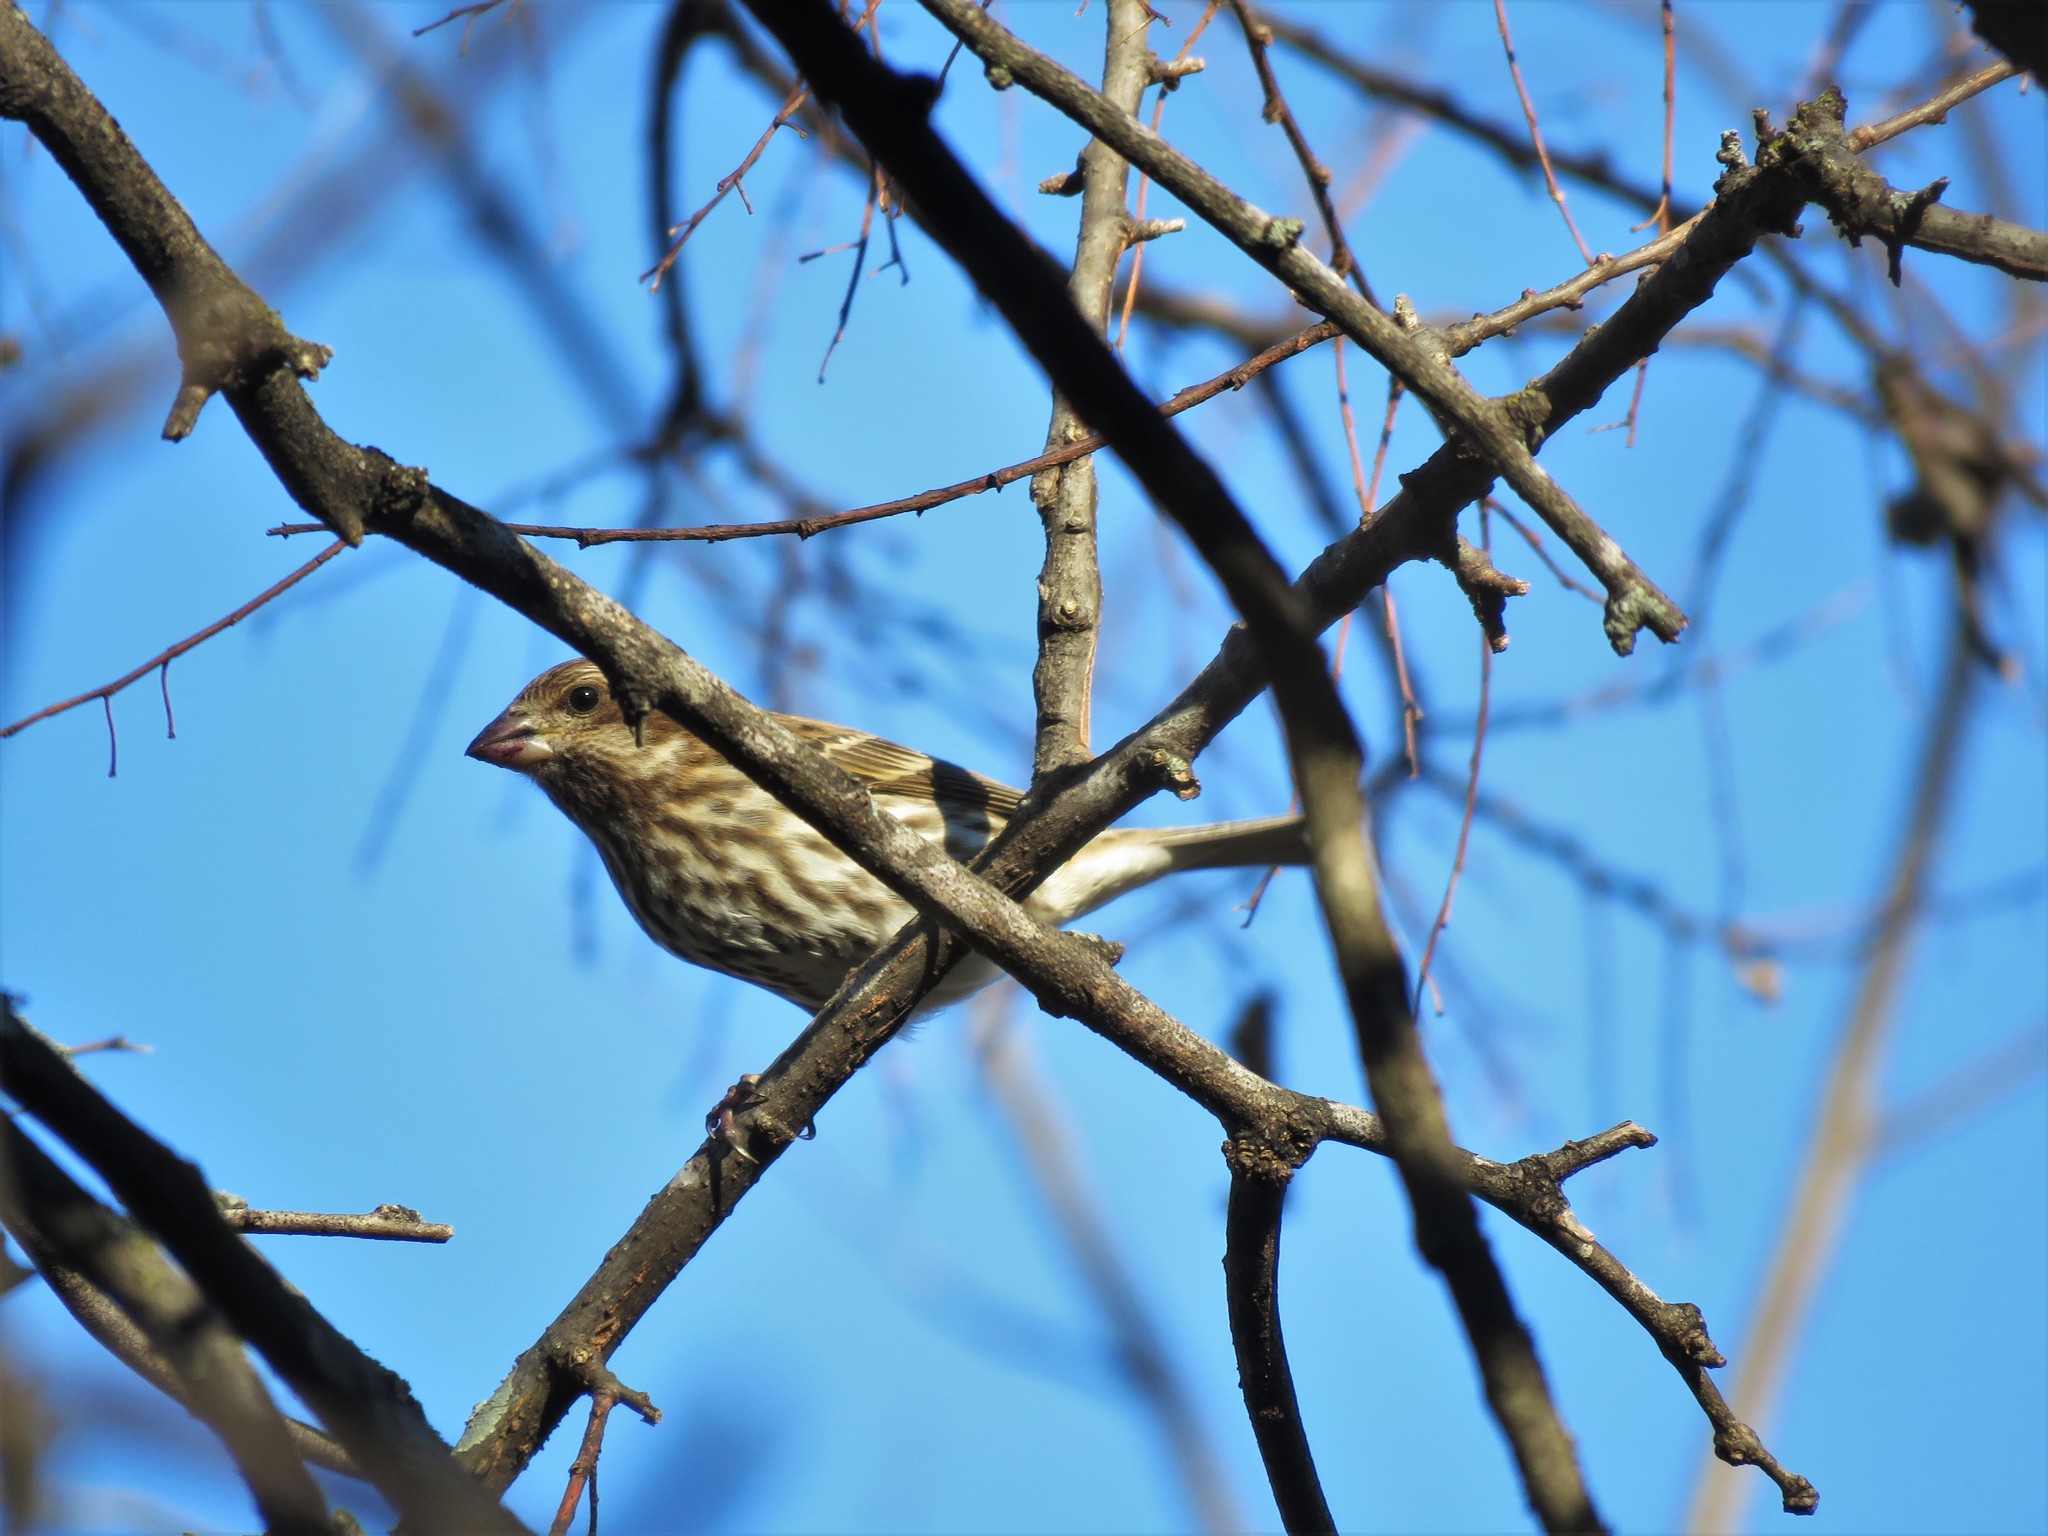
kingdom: Animalia
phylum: Chordata
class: Aves
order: Passeriformes
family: Fringillidae
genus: Haemorhous
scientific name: Haemorhous purpureus
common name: Purple finch
